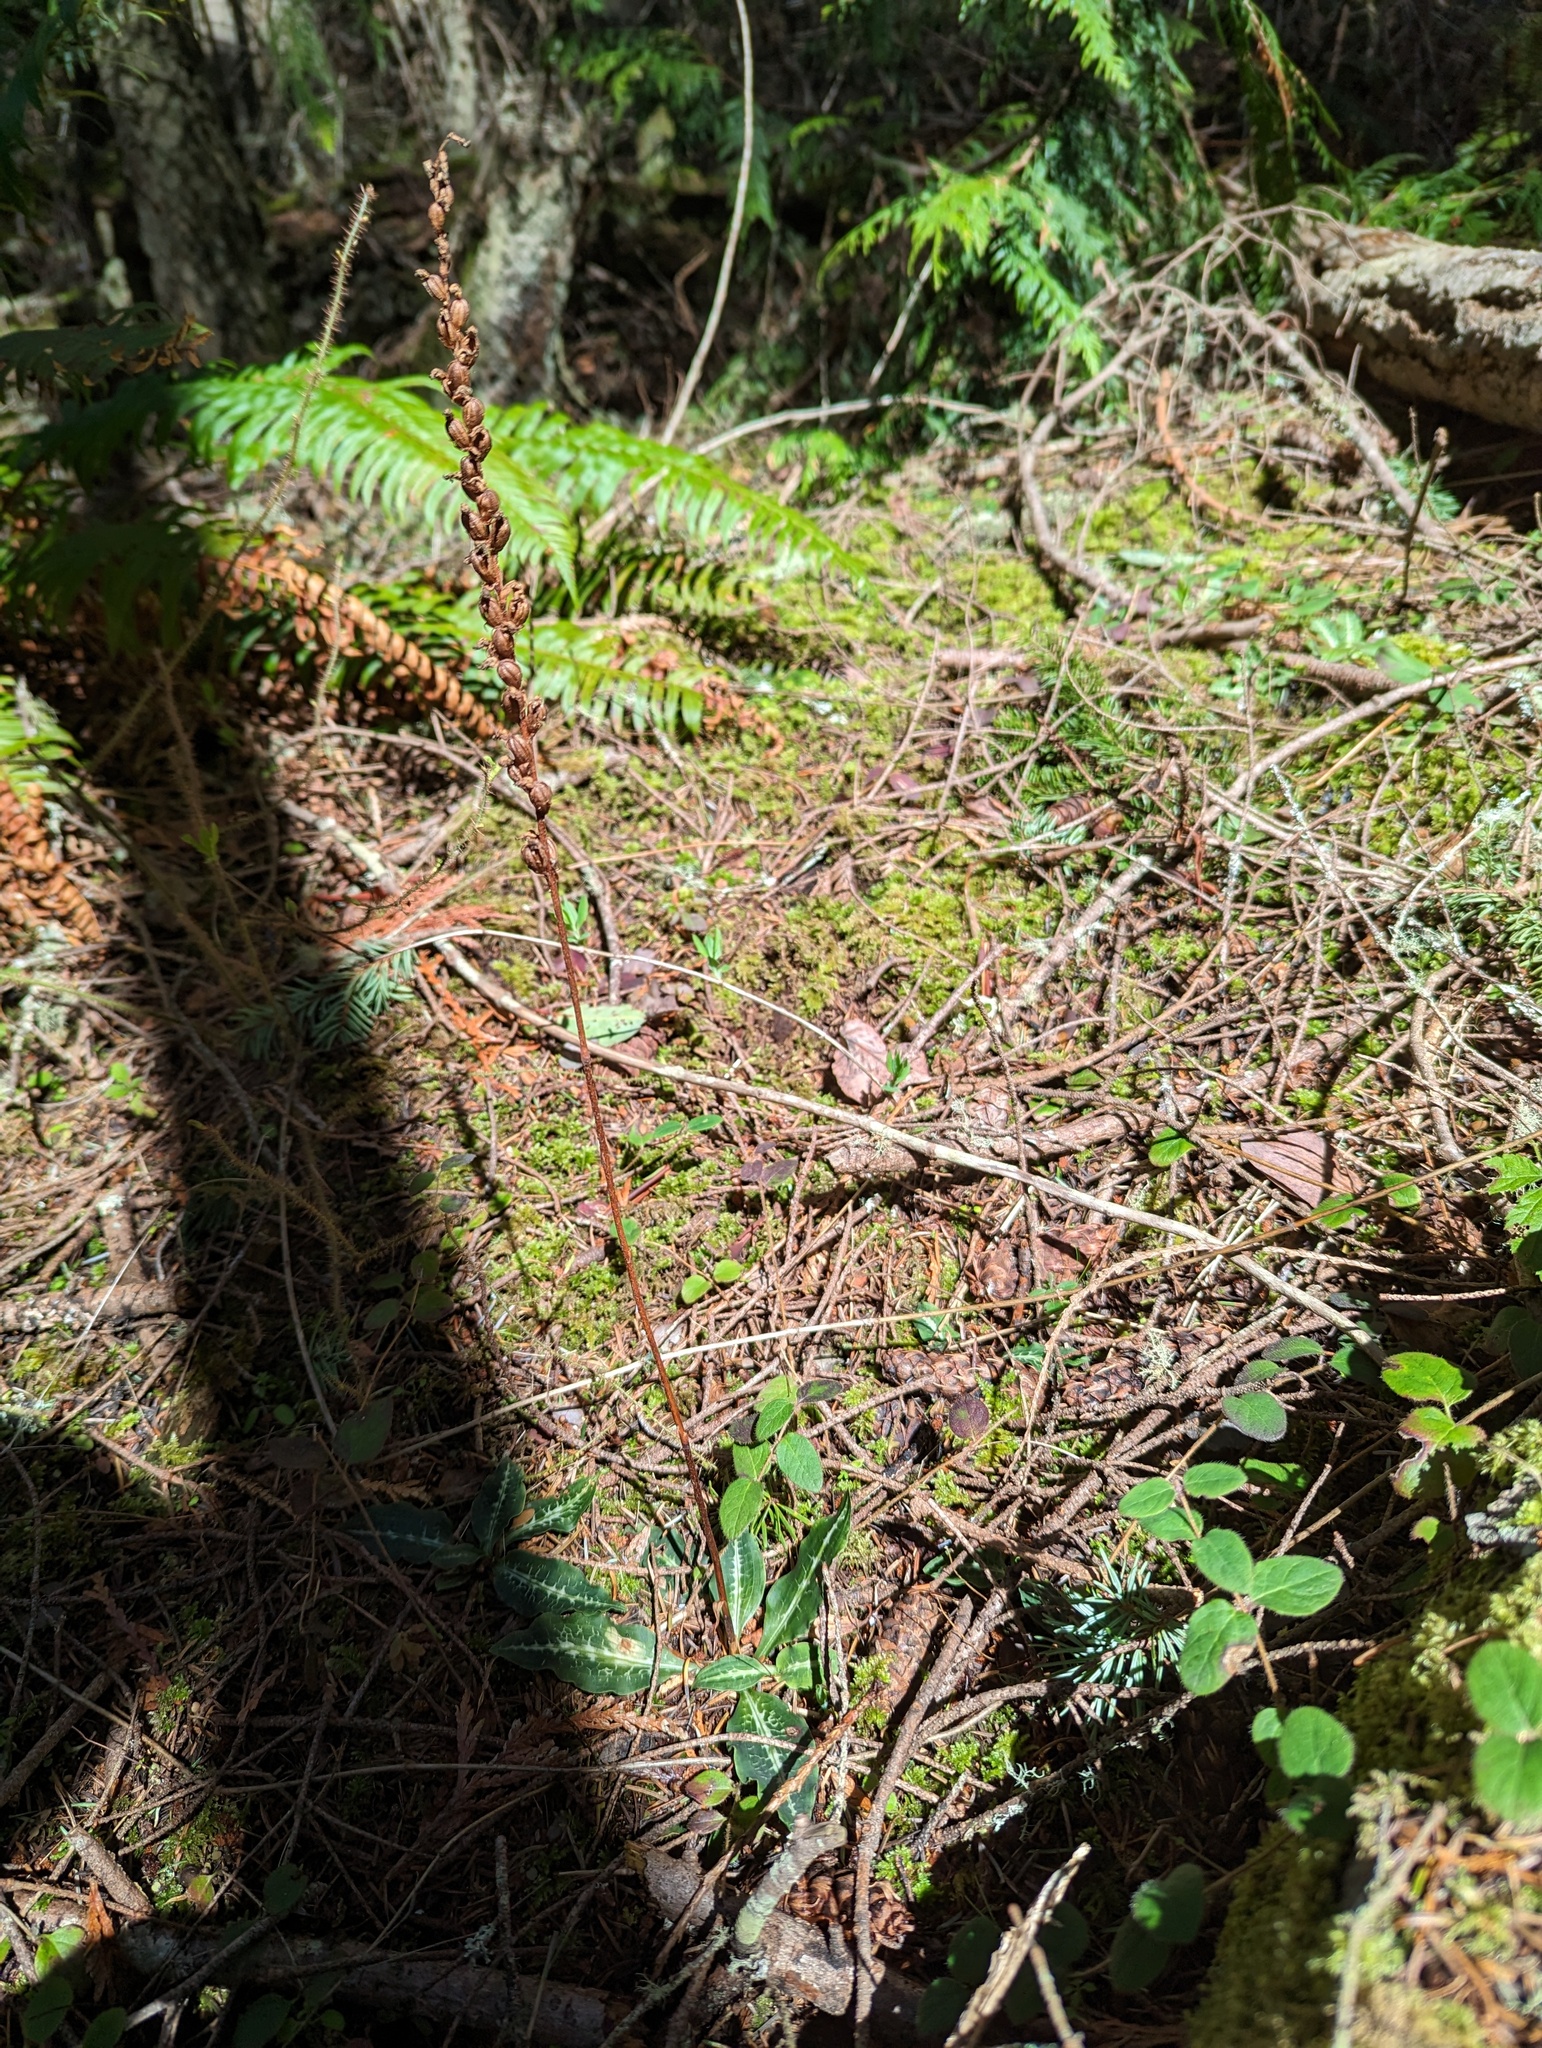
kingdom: Plantae
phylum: Tracheophyta
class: Liliopsida
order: Asparagales
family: Orchidaceae
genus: Goodyera
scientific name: Goodyera oblongifolia
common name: Giant rattlesnake-plantain
